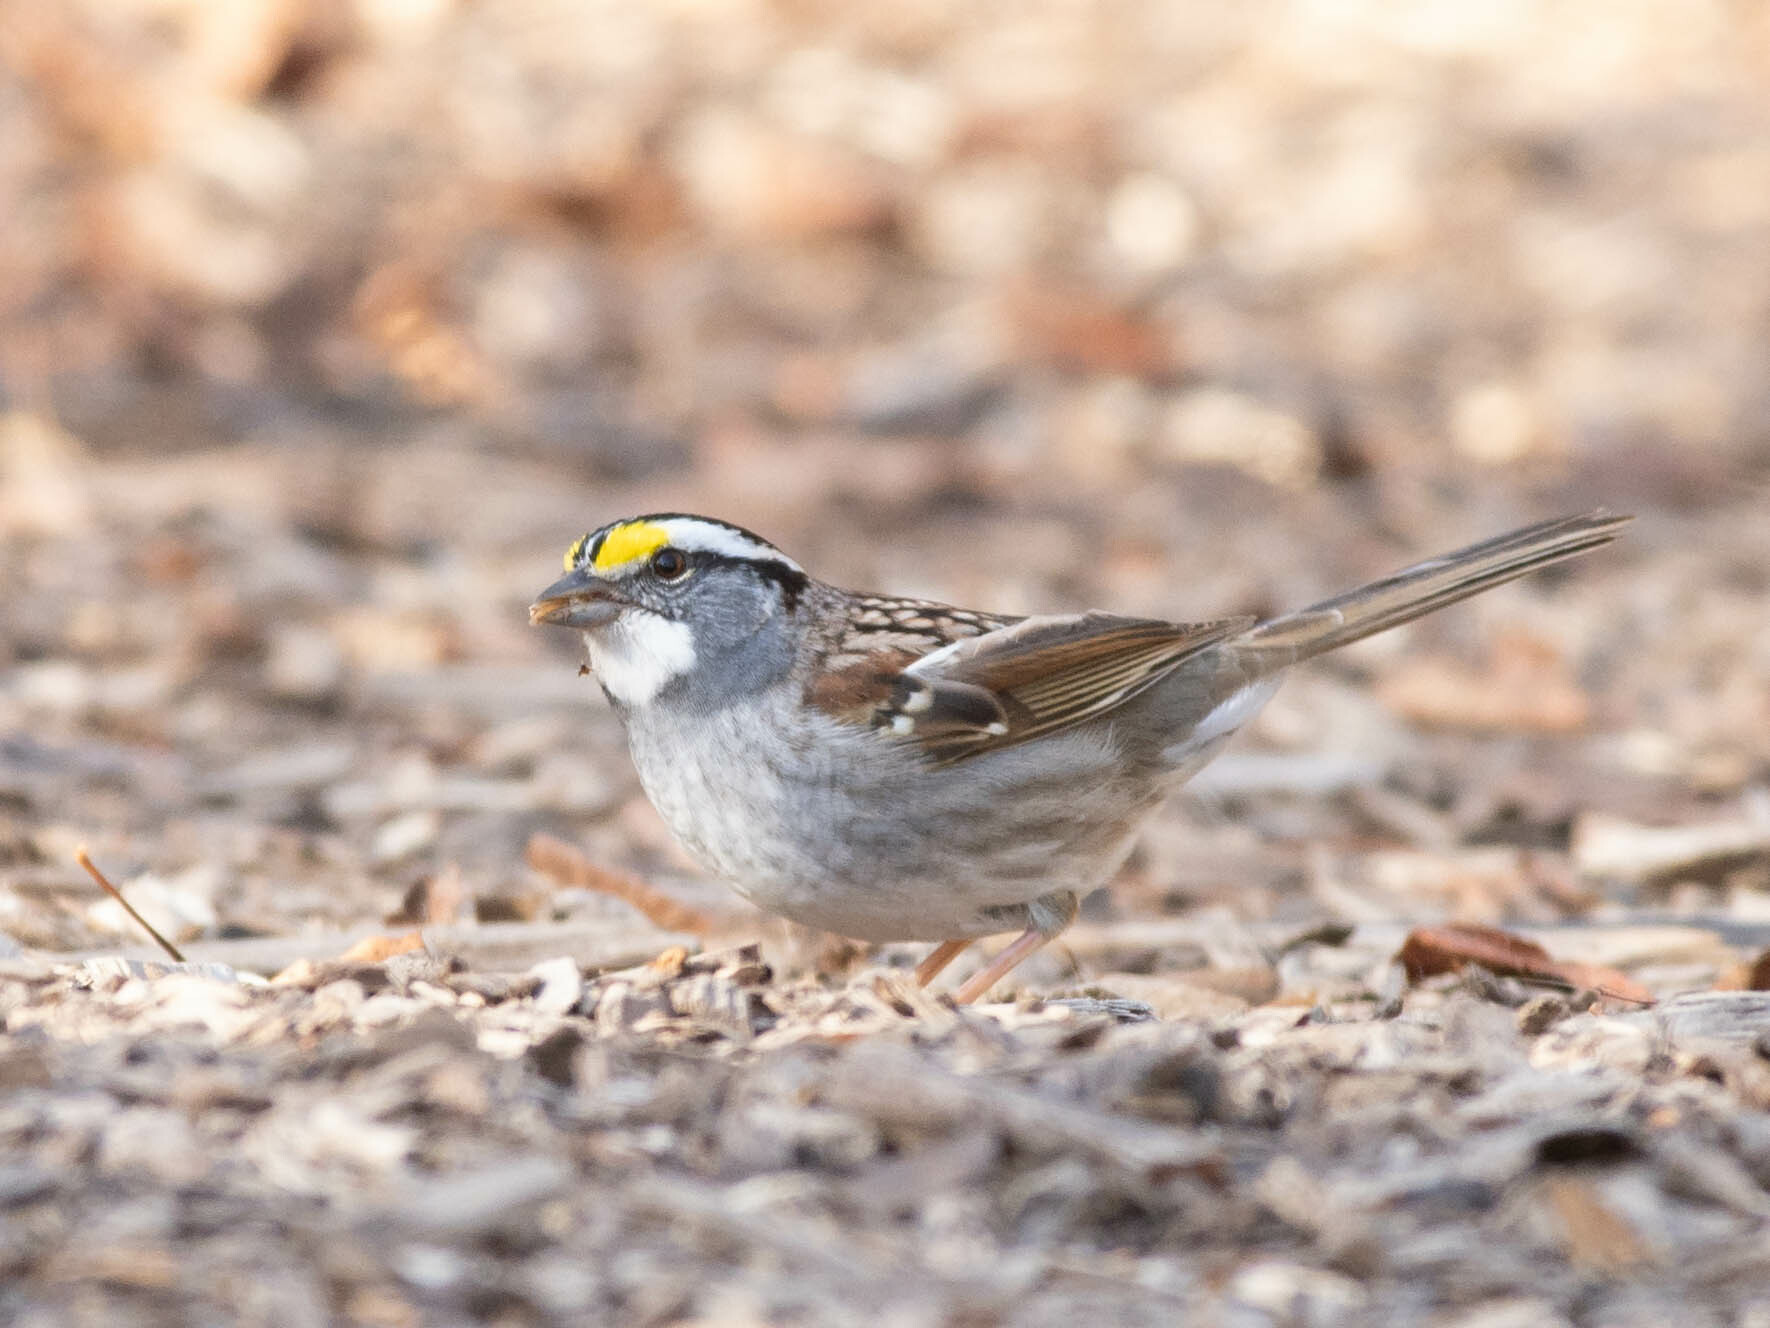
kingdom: Animalia
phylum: Chordata
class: Aves
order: Passeriformes
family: Passerellidae
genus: Zonotrichia
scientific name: Zonotrichia albicollis
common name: White-throated sparrow
